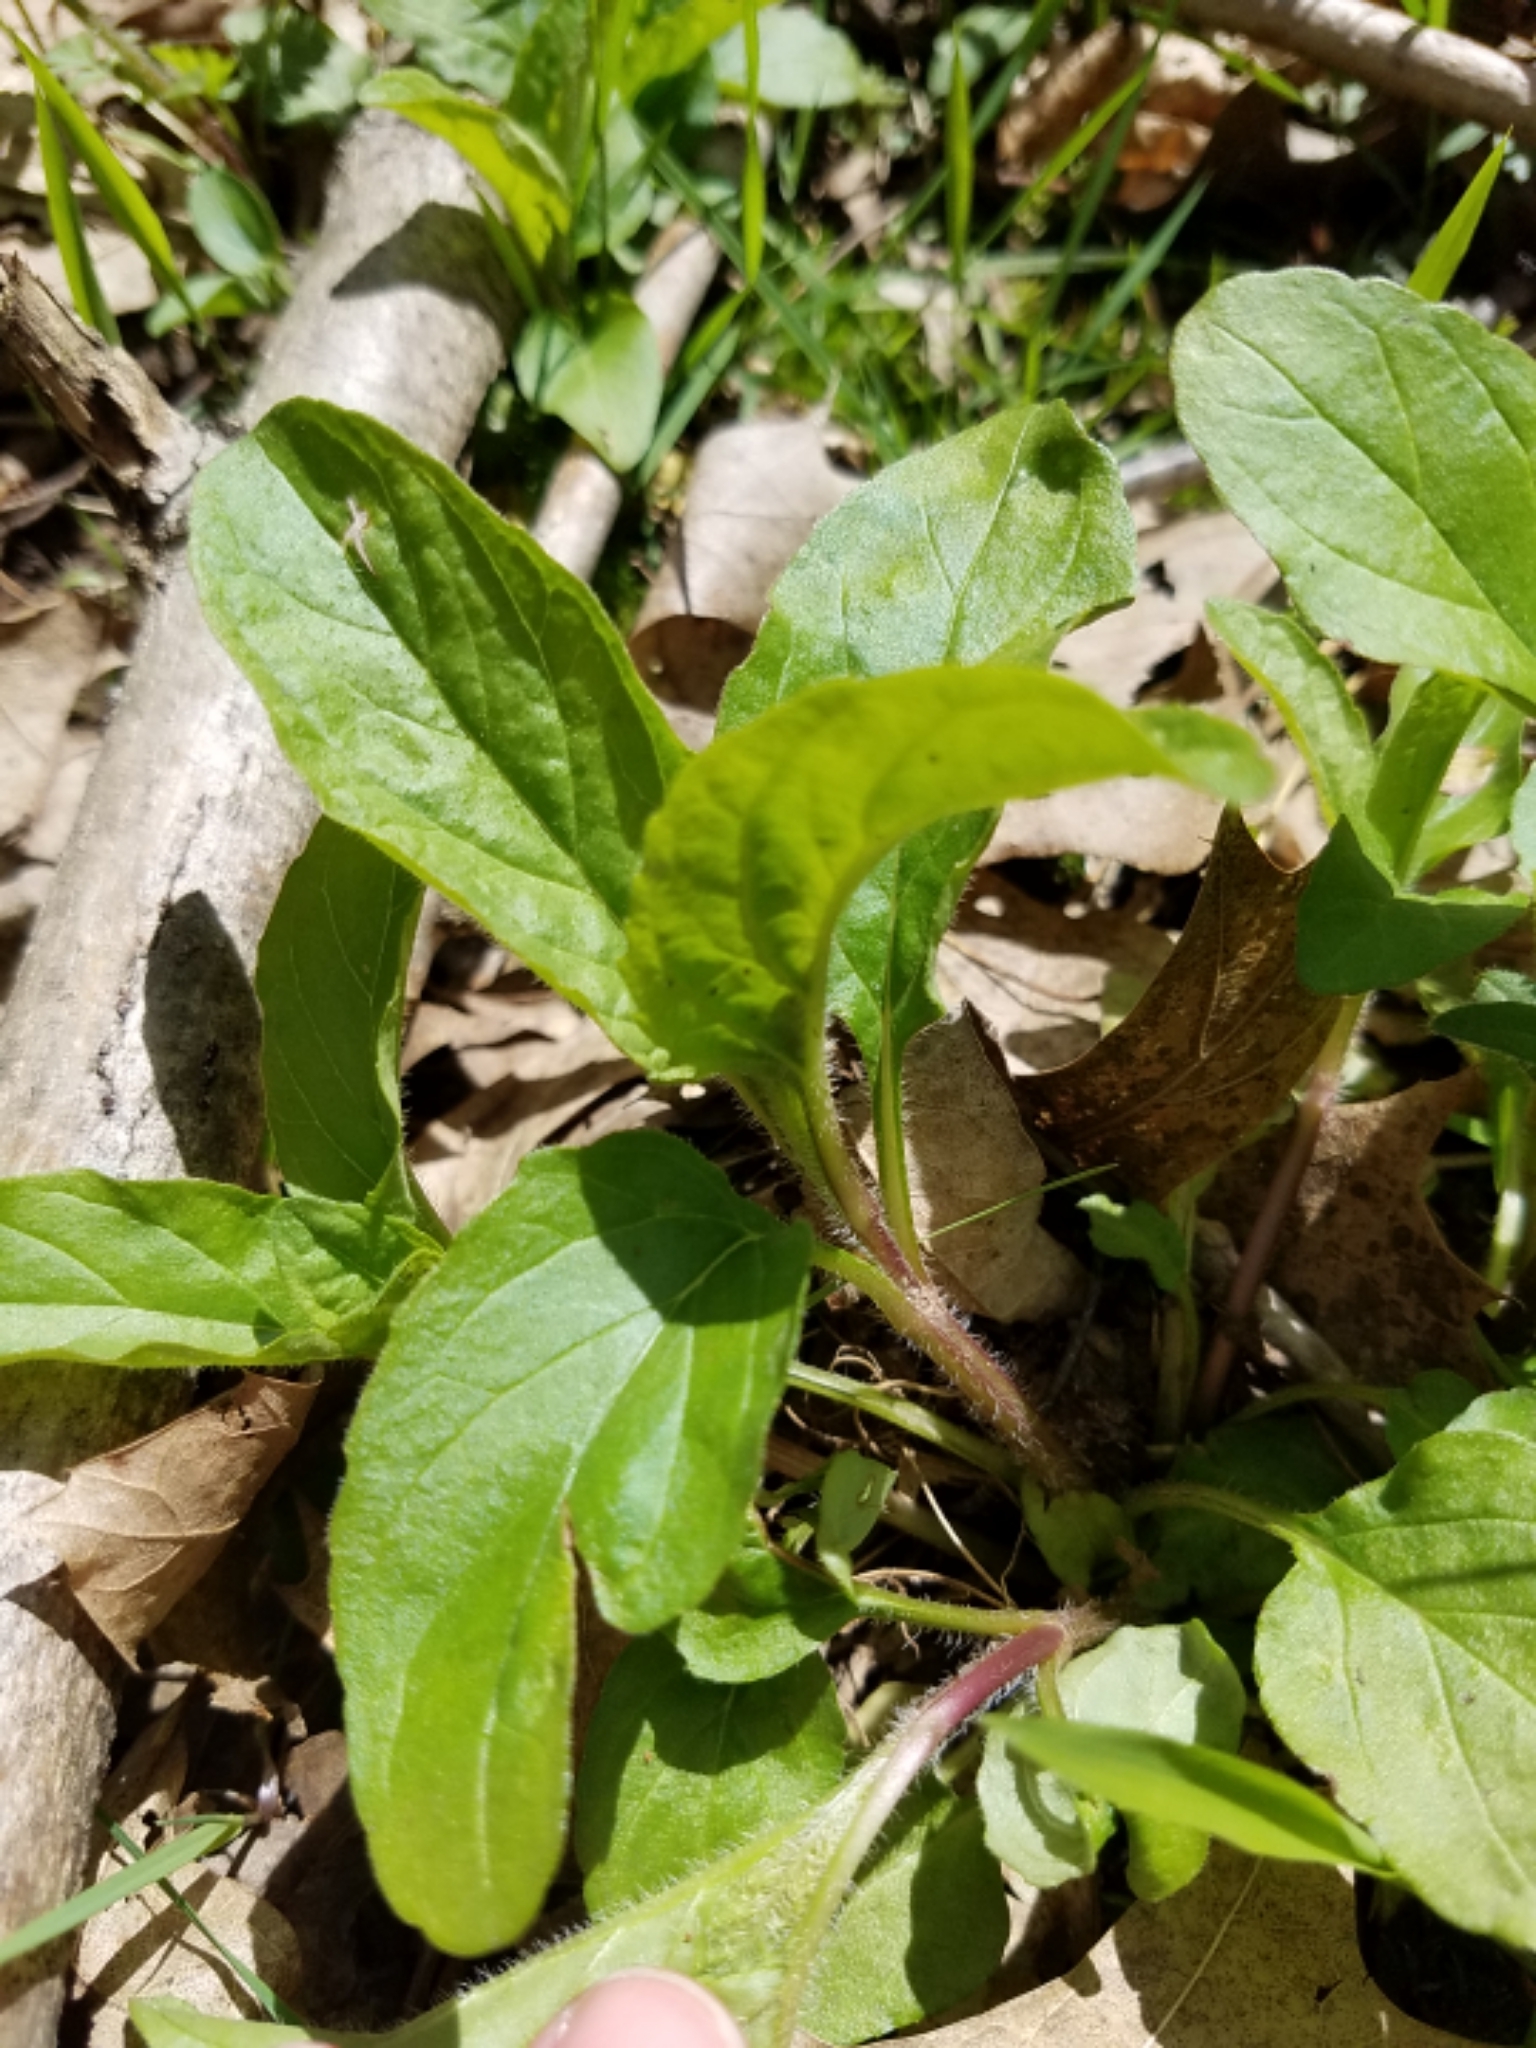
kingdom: Plantae
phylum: Tracheophyta
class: Magnoliopsida
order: Lamiales
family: Lamiaceae
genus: Prunella
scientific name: Prunella vulgaris
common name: Heal-all
